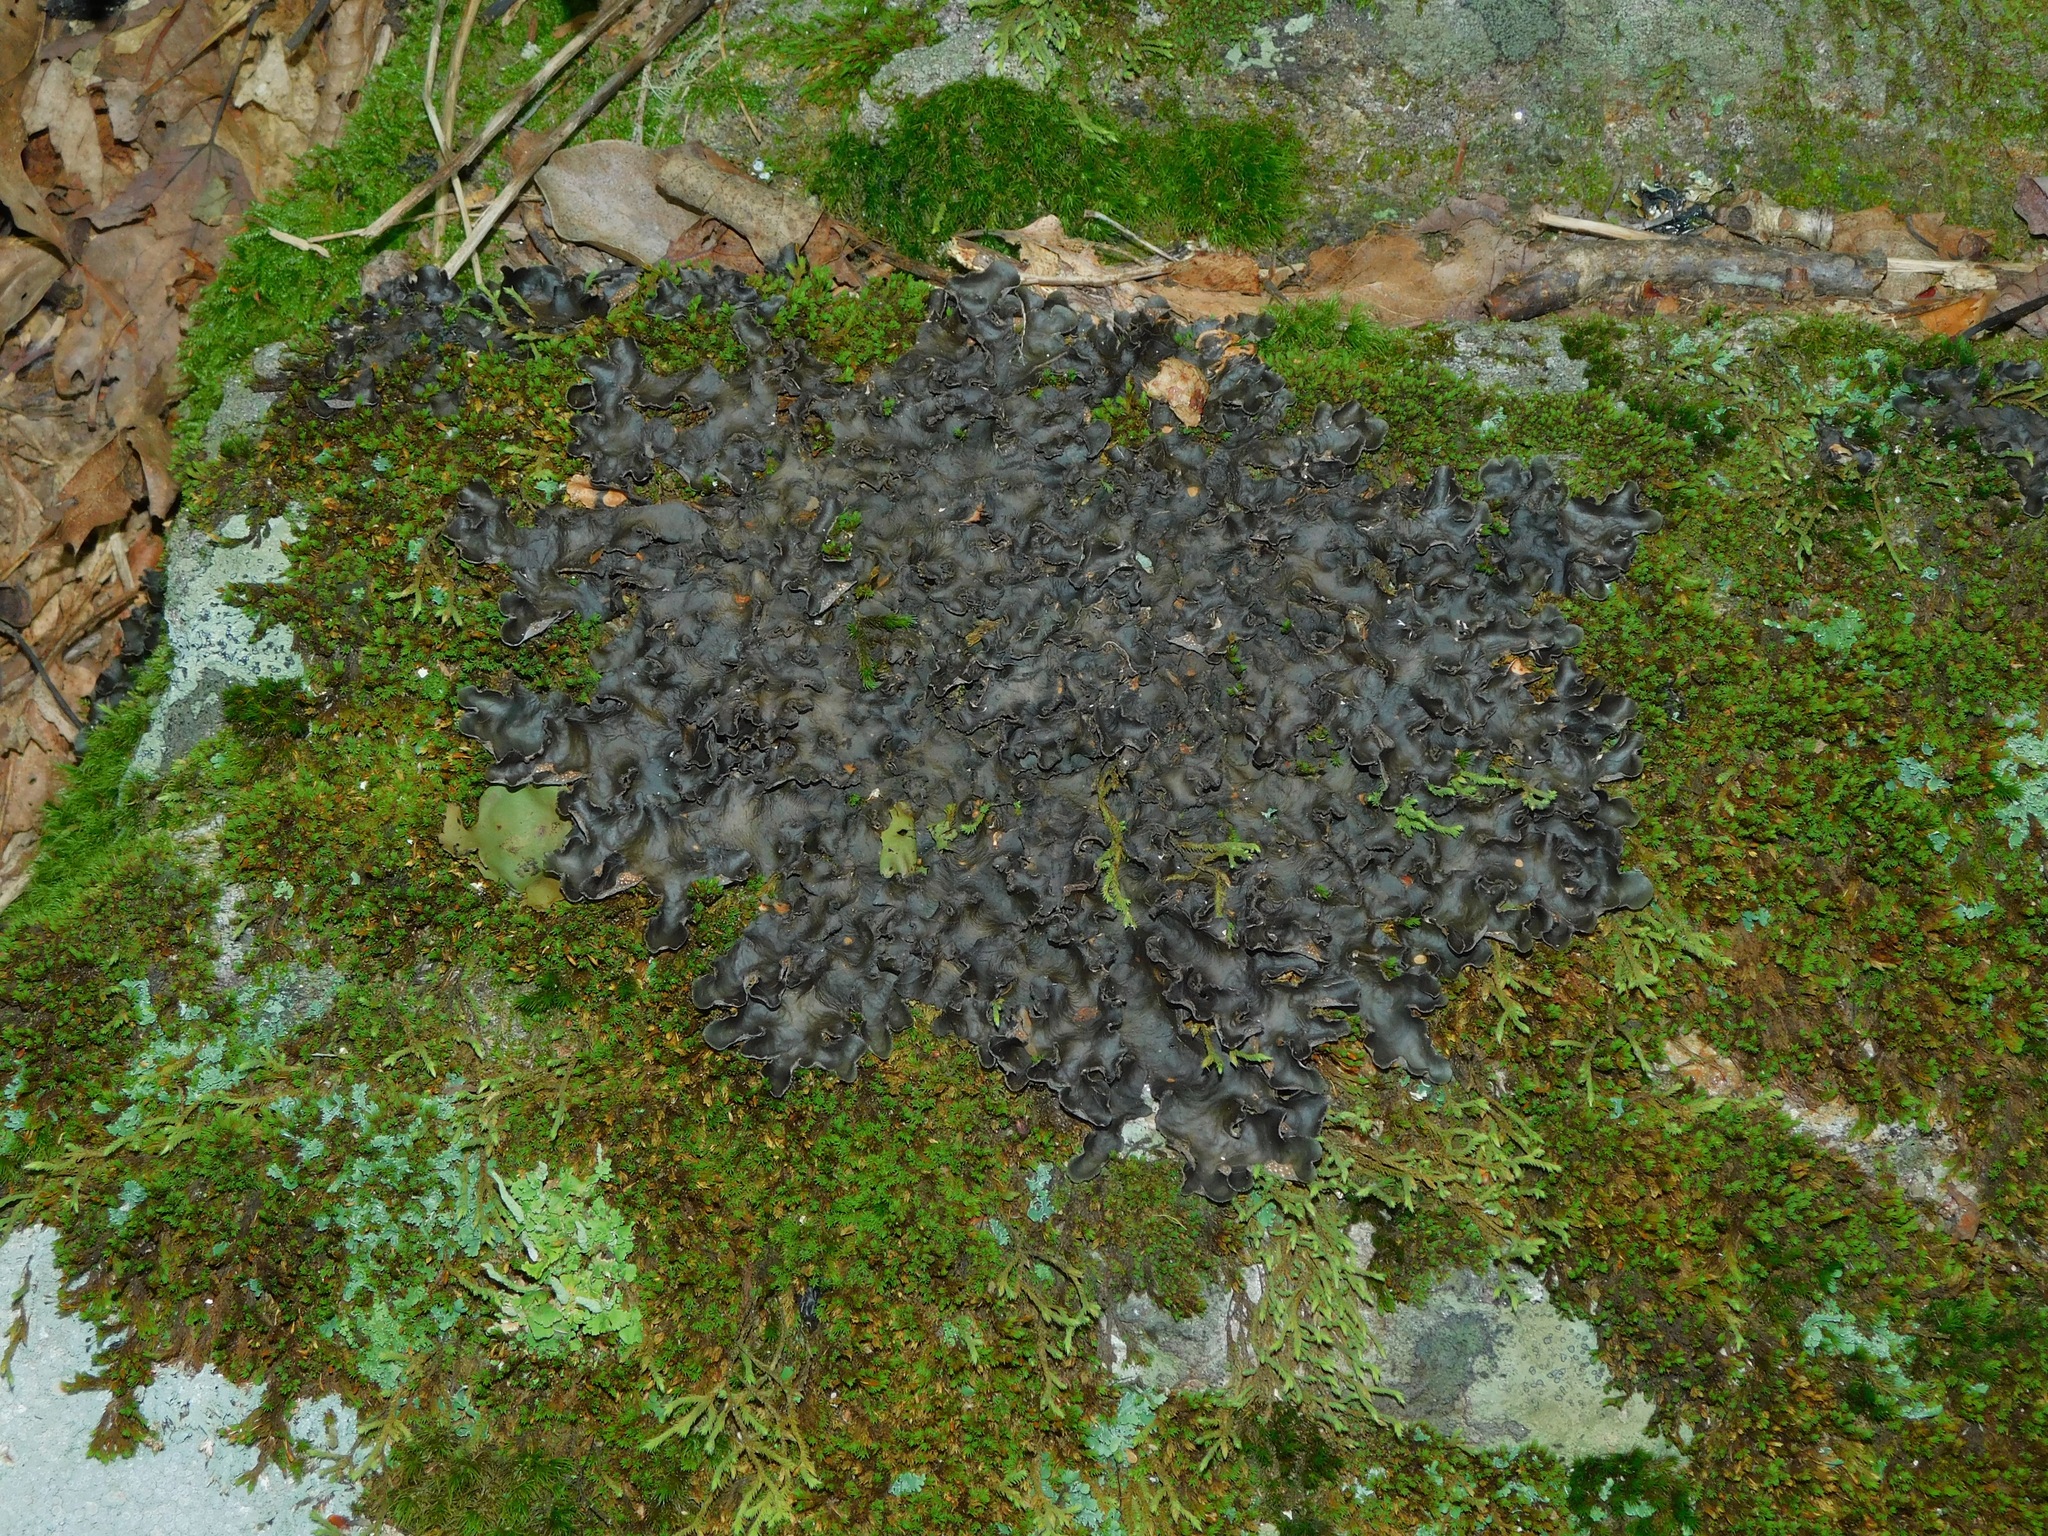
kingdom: Fungi
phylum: Ascomycota
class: Lecanoromycetes
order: Peltigerales
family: Lobariaceae
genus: Sticta
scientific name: Sticta beauvoisii
